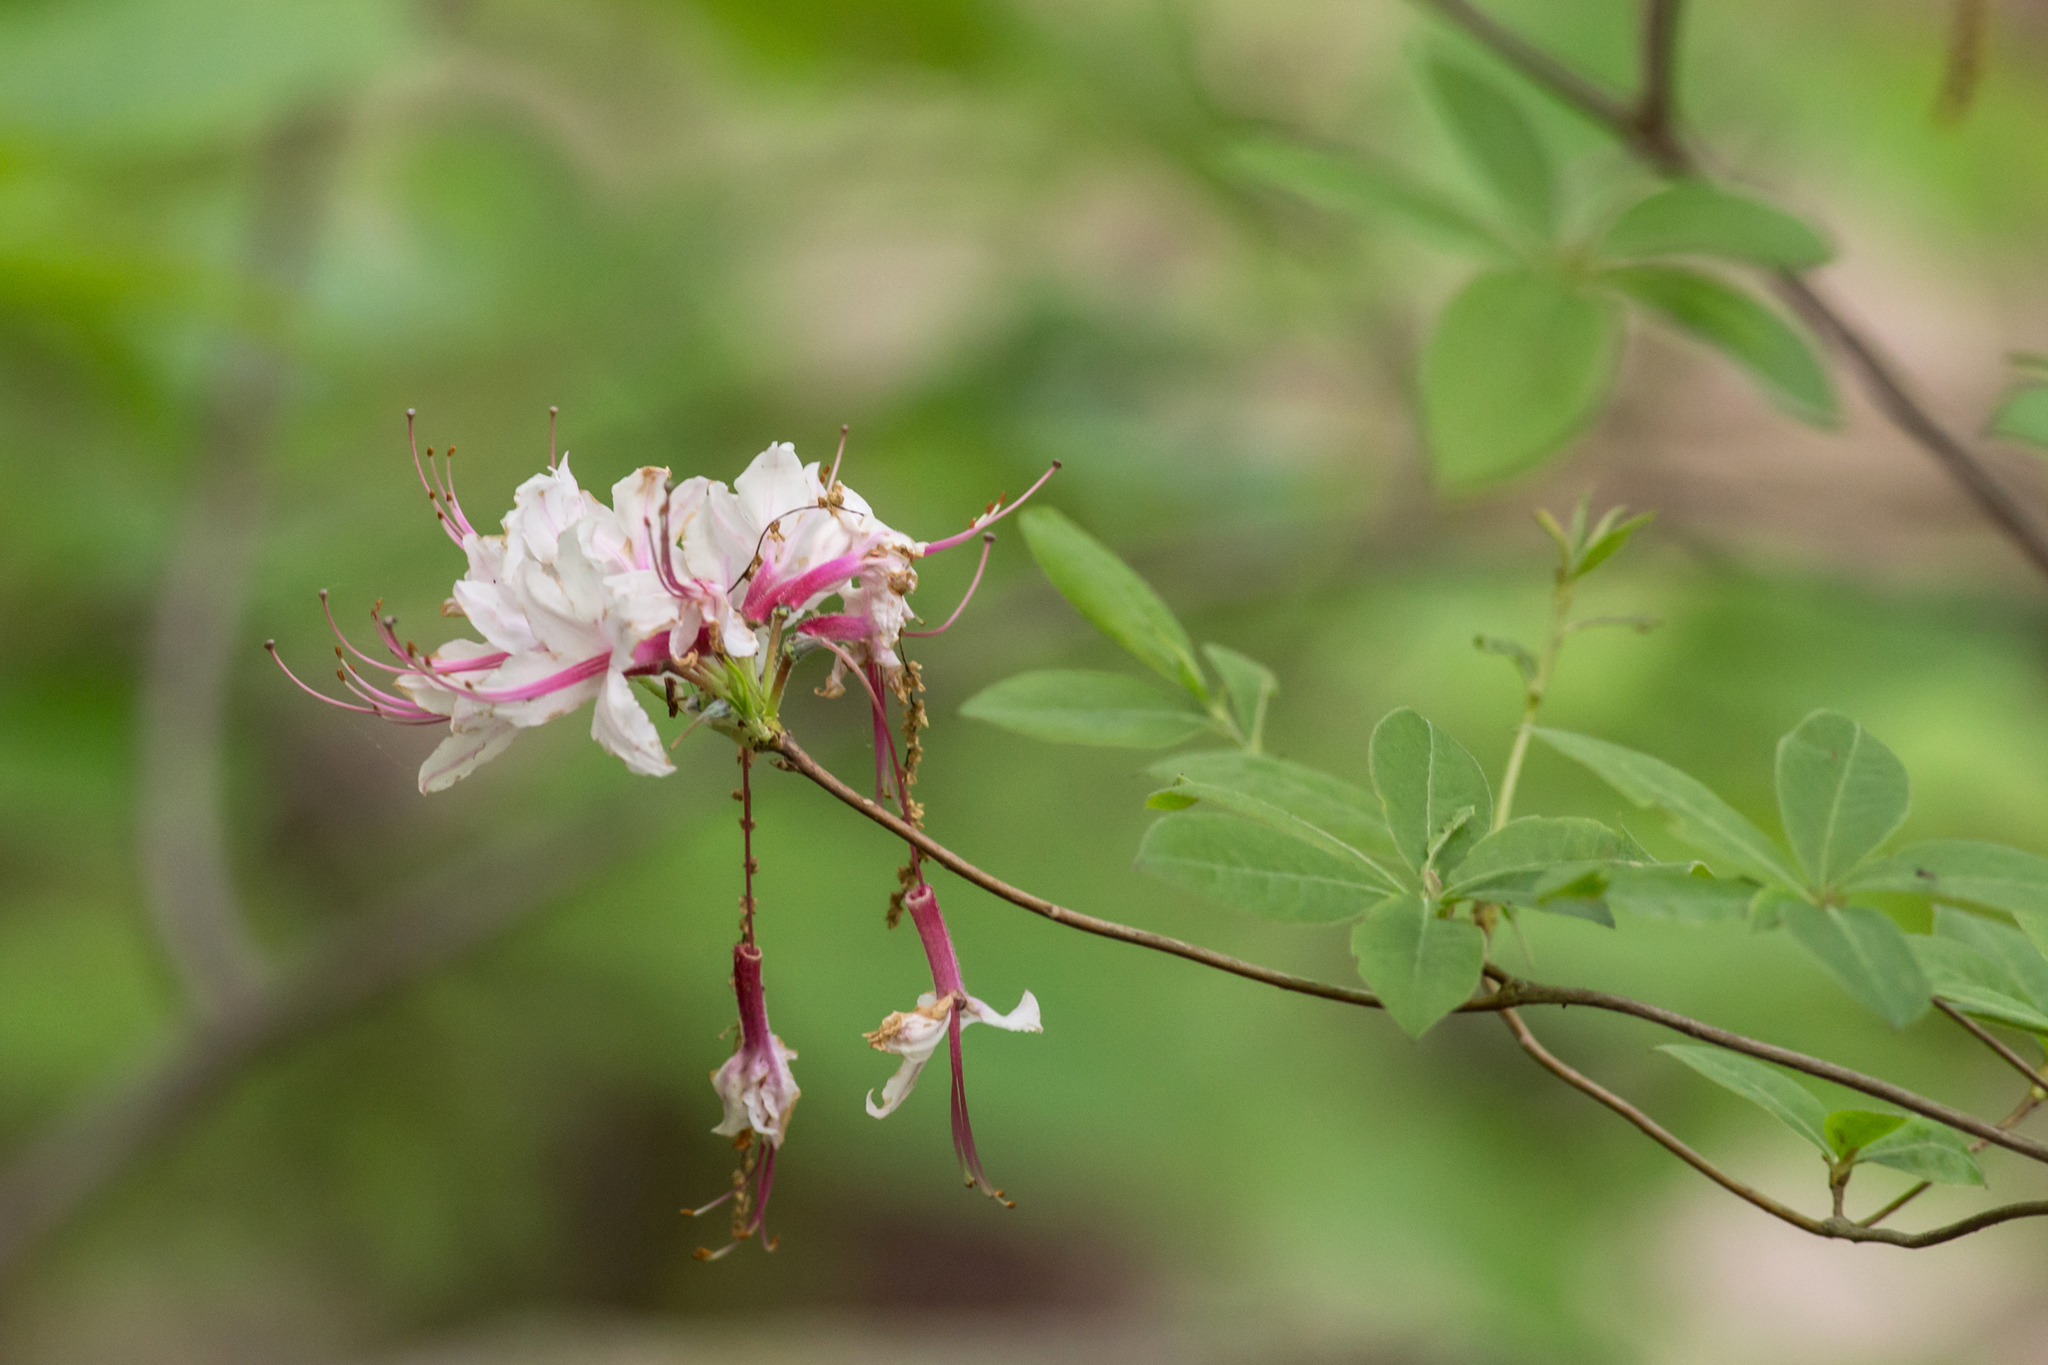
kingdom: Plantae
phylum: Tracheophyta
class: Magnoliopsida
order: Ericales
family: Ericaceae
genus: Rhododendron
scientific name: Rhododendron periclymenoides
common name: Election-pink
